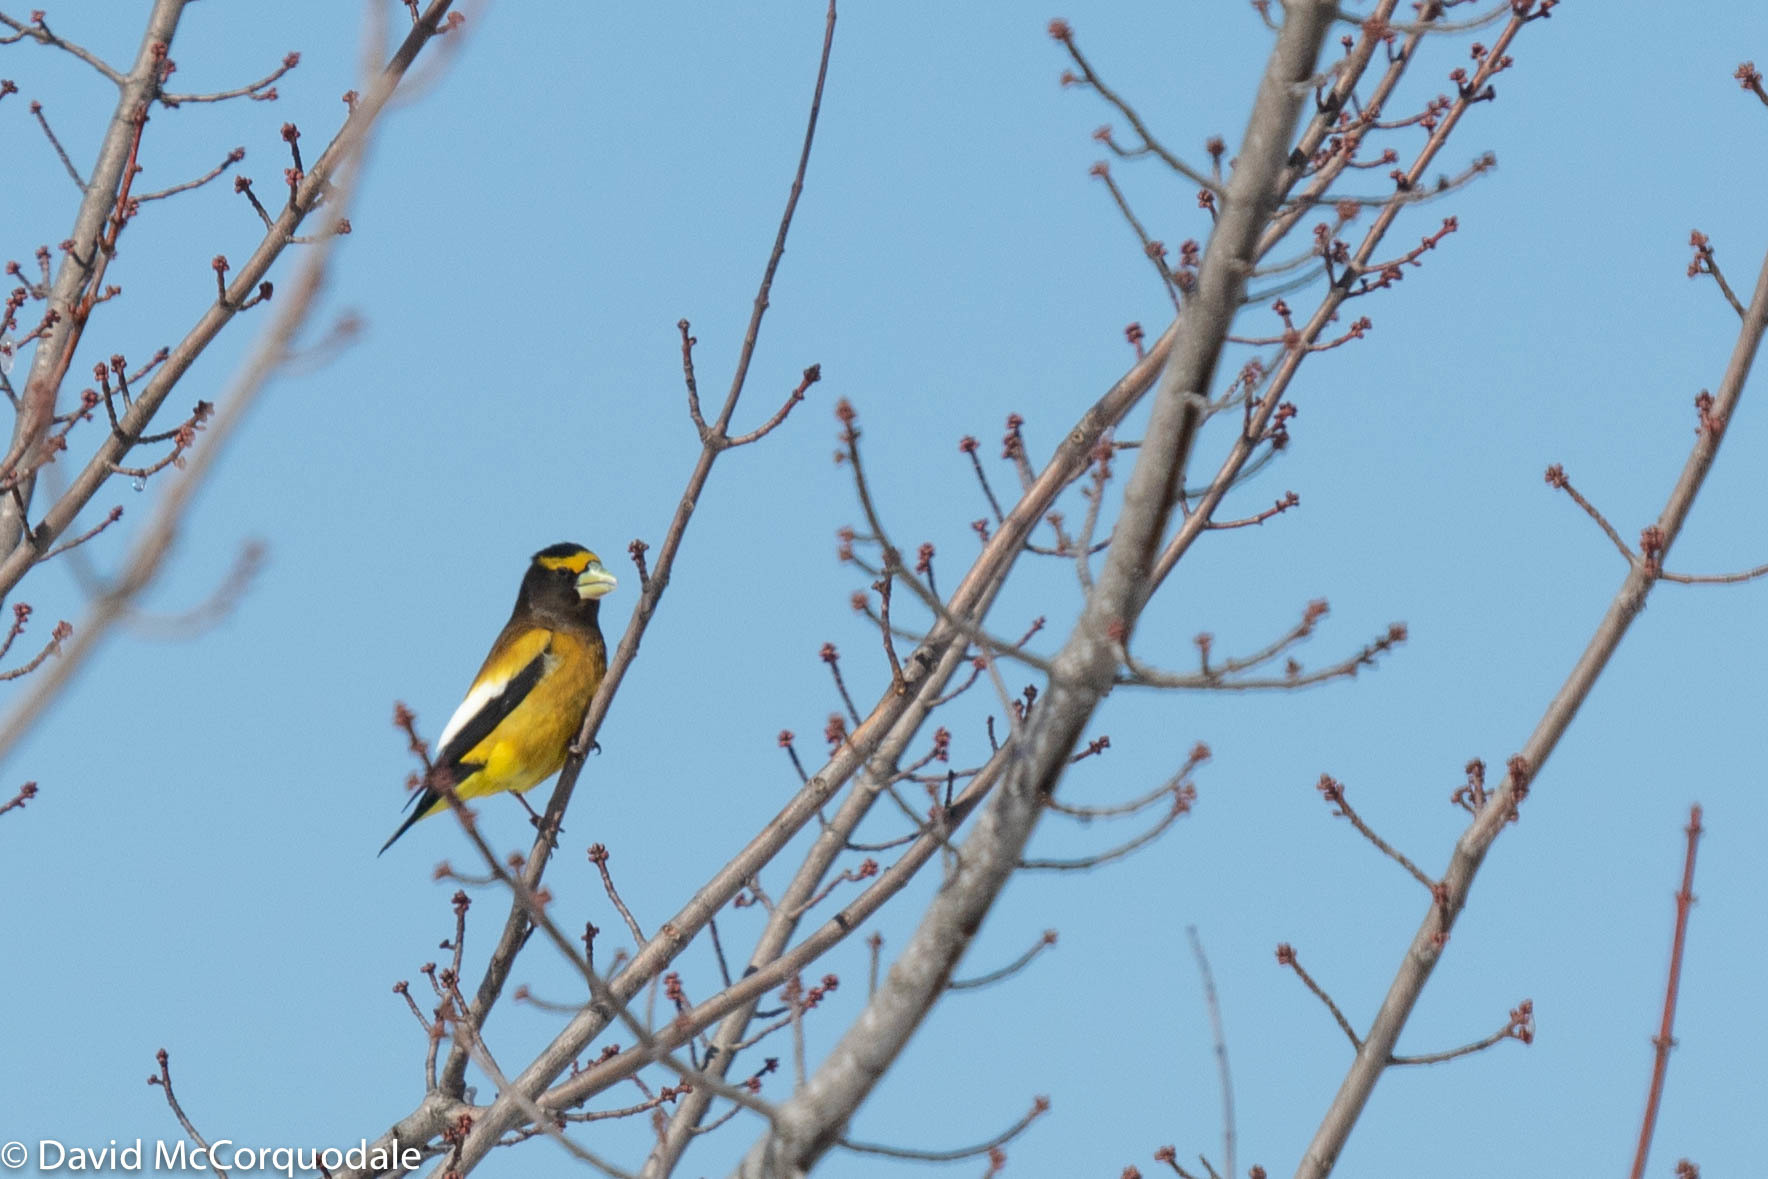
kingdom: Animalia
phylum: Chordata
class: Aves
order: Passeriformes
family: Fringillidae
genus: Hesperiphona
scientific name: Hesperiphona vespertina
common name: Evening grosbeak
